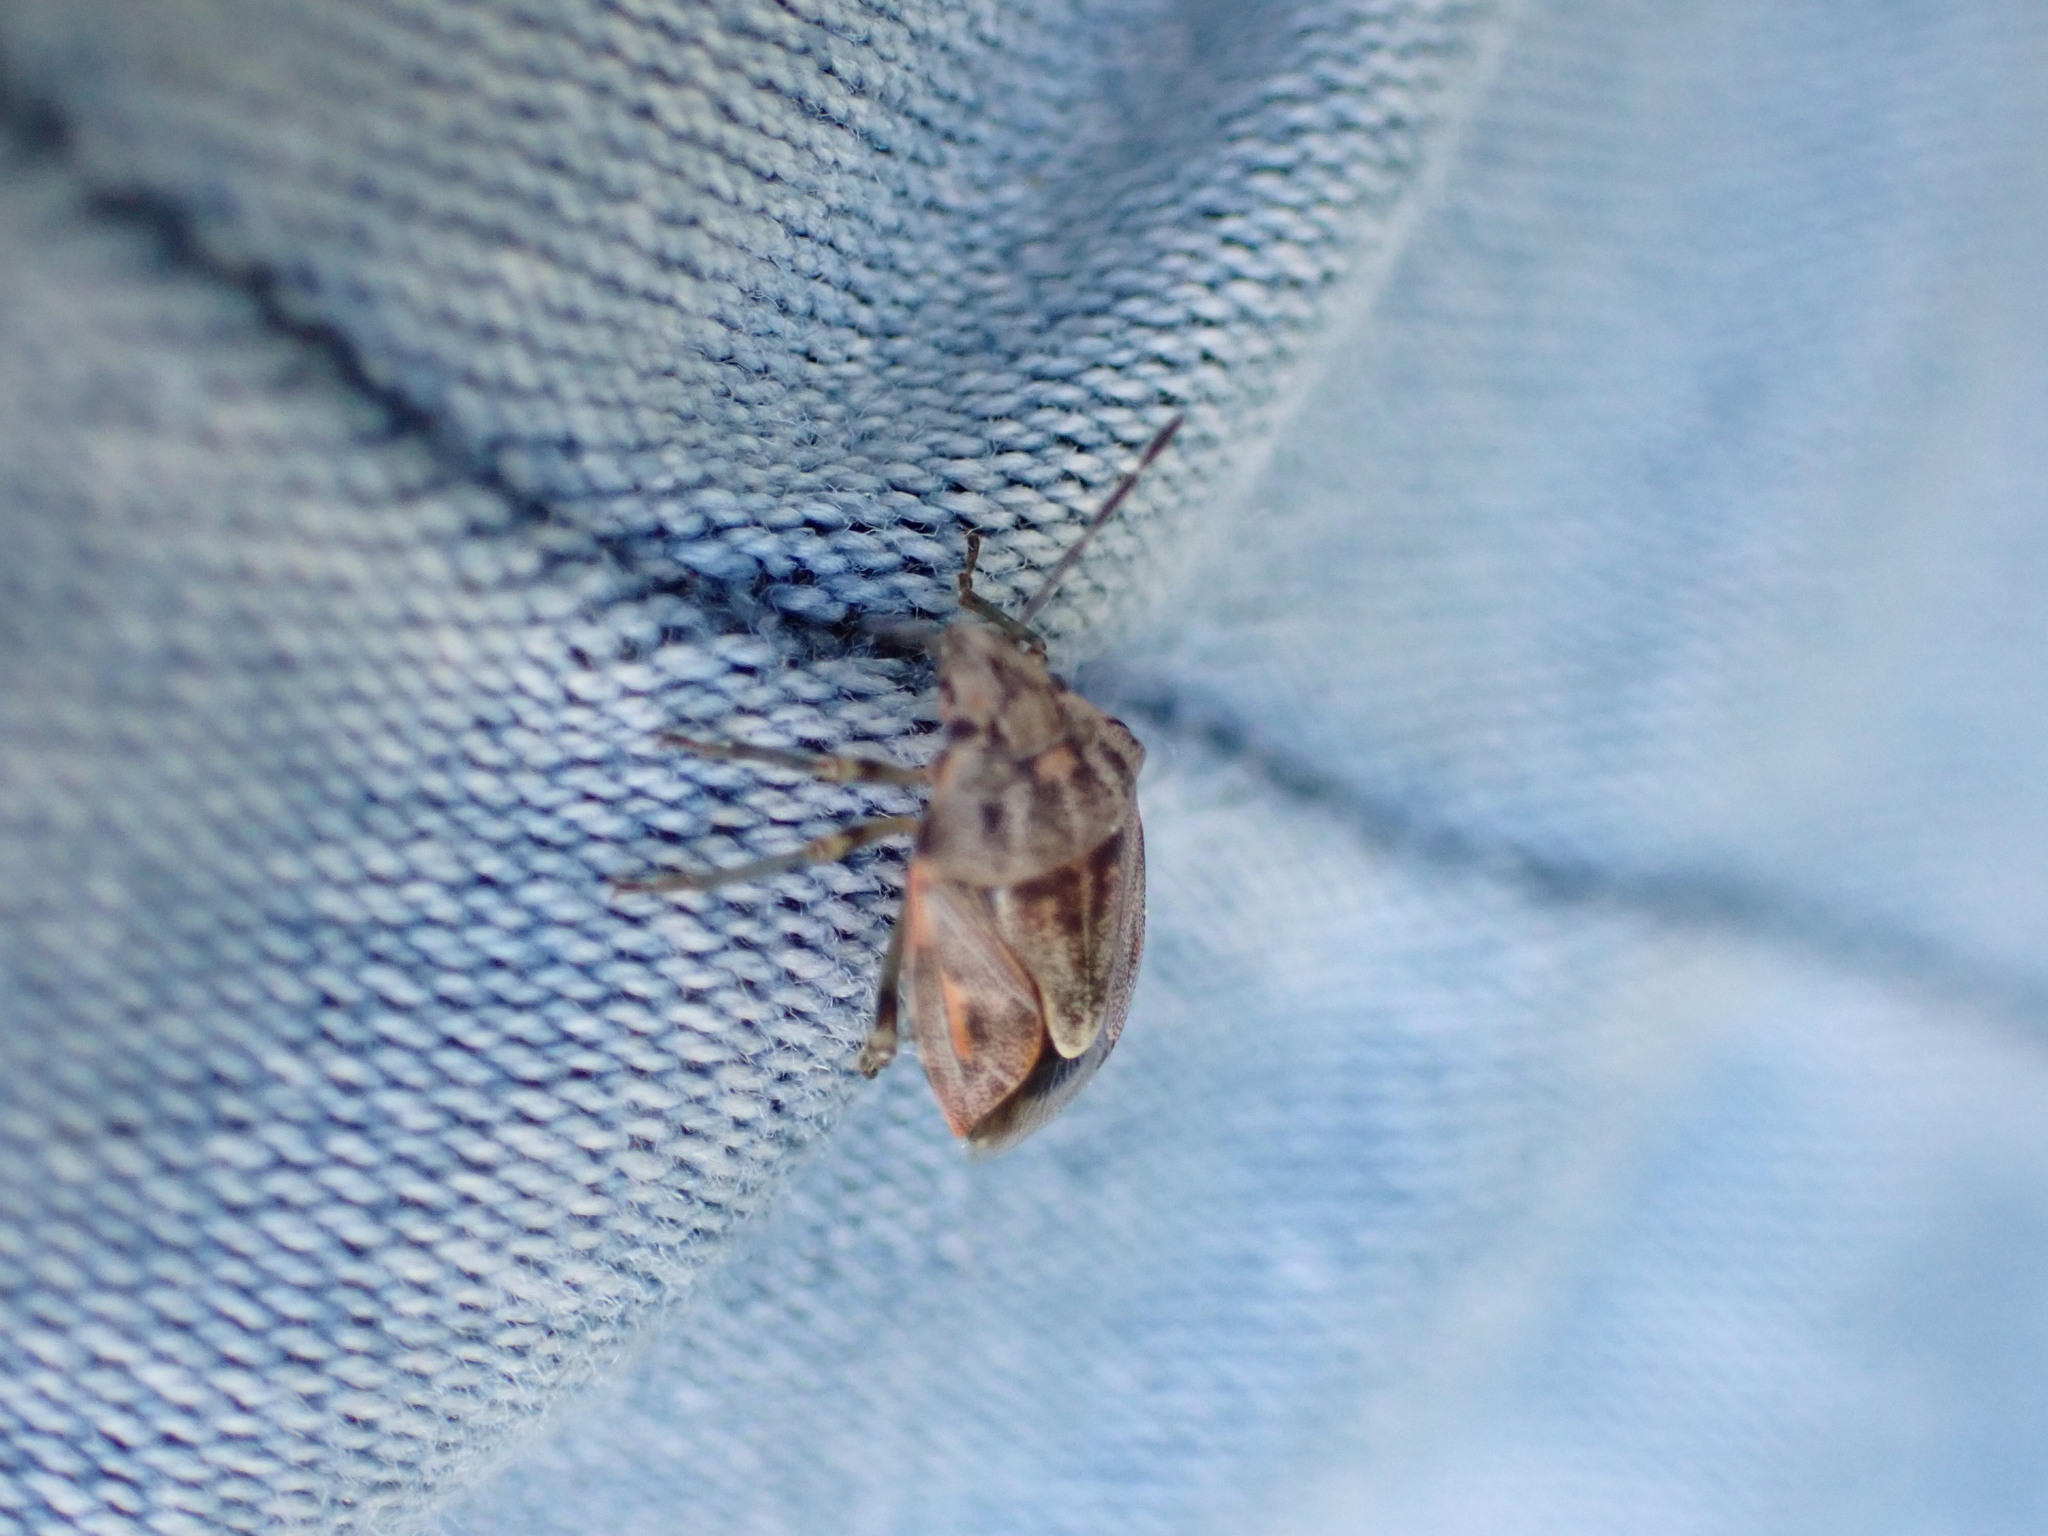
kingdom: Animalia
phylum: Arthropoda
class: Insecta
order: Hemiptera
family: Pentatomidae
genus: Holcogaster
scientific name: Holcogaster fibulata
